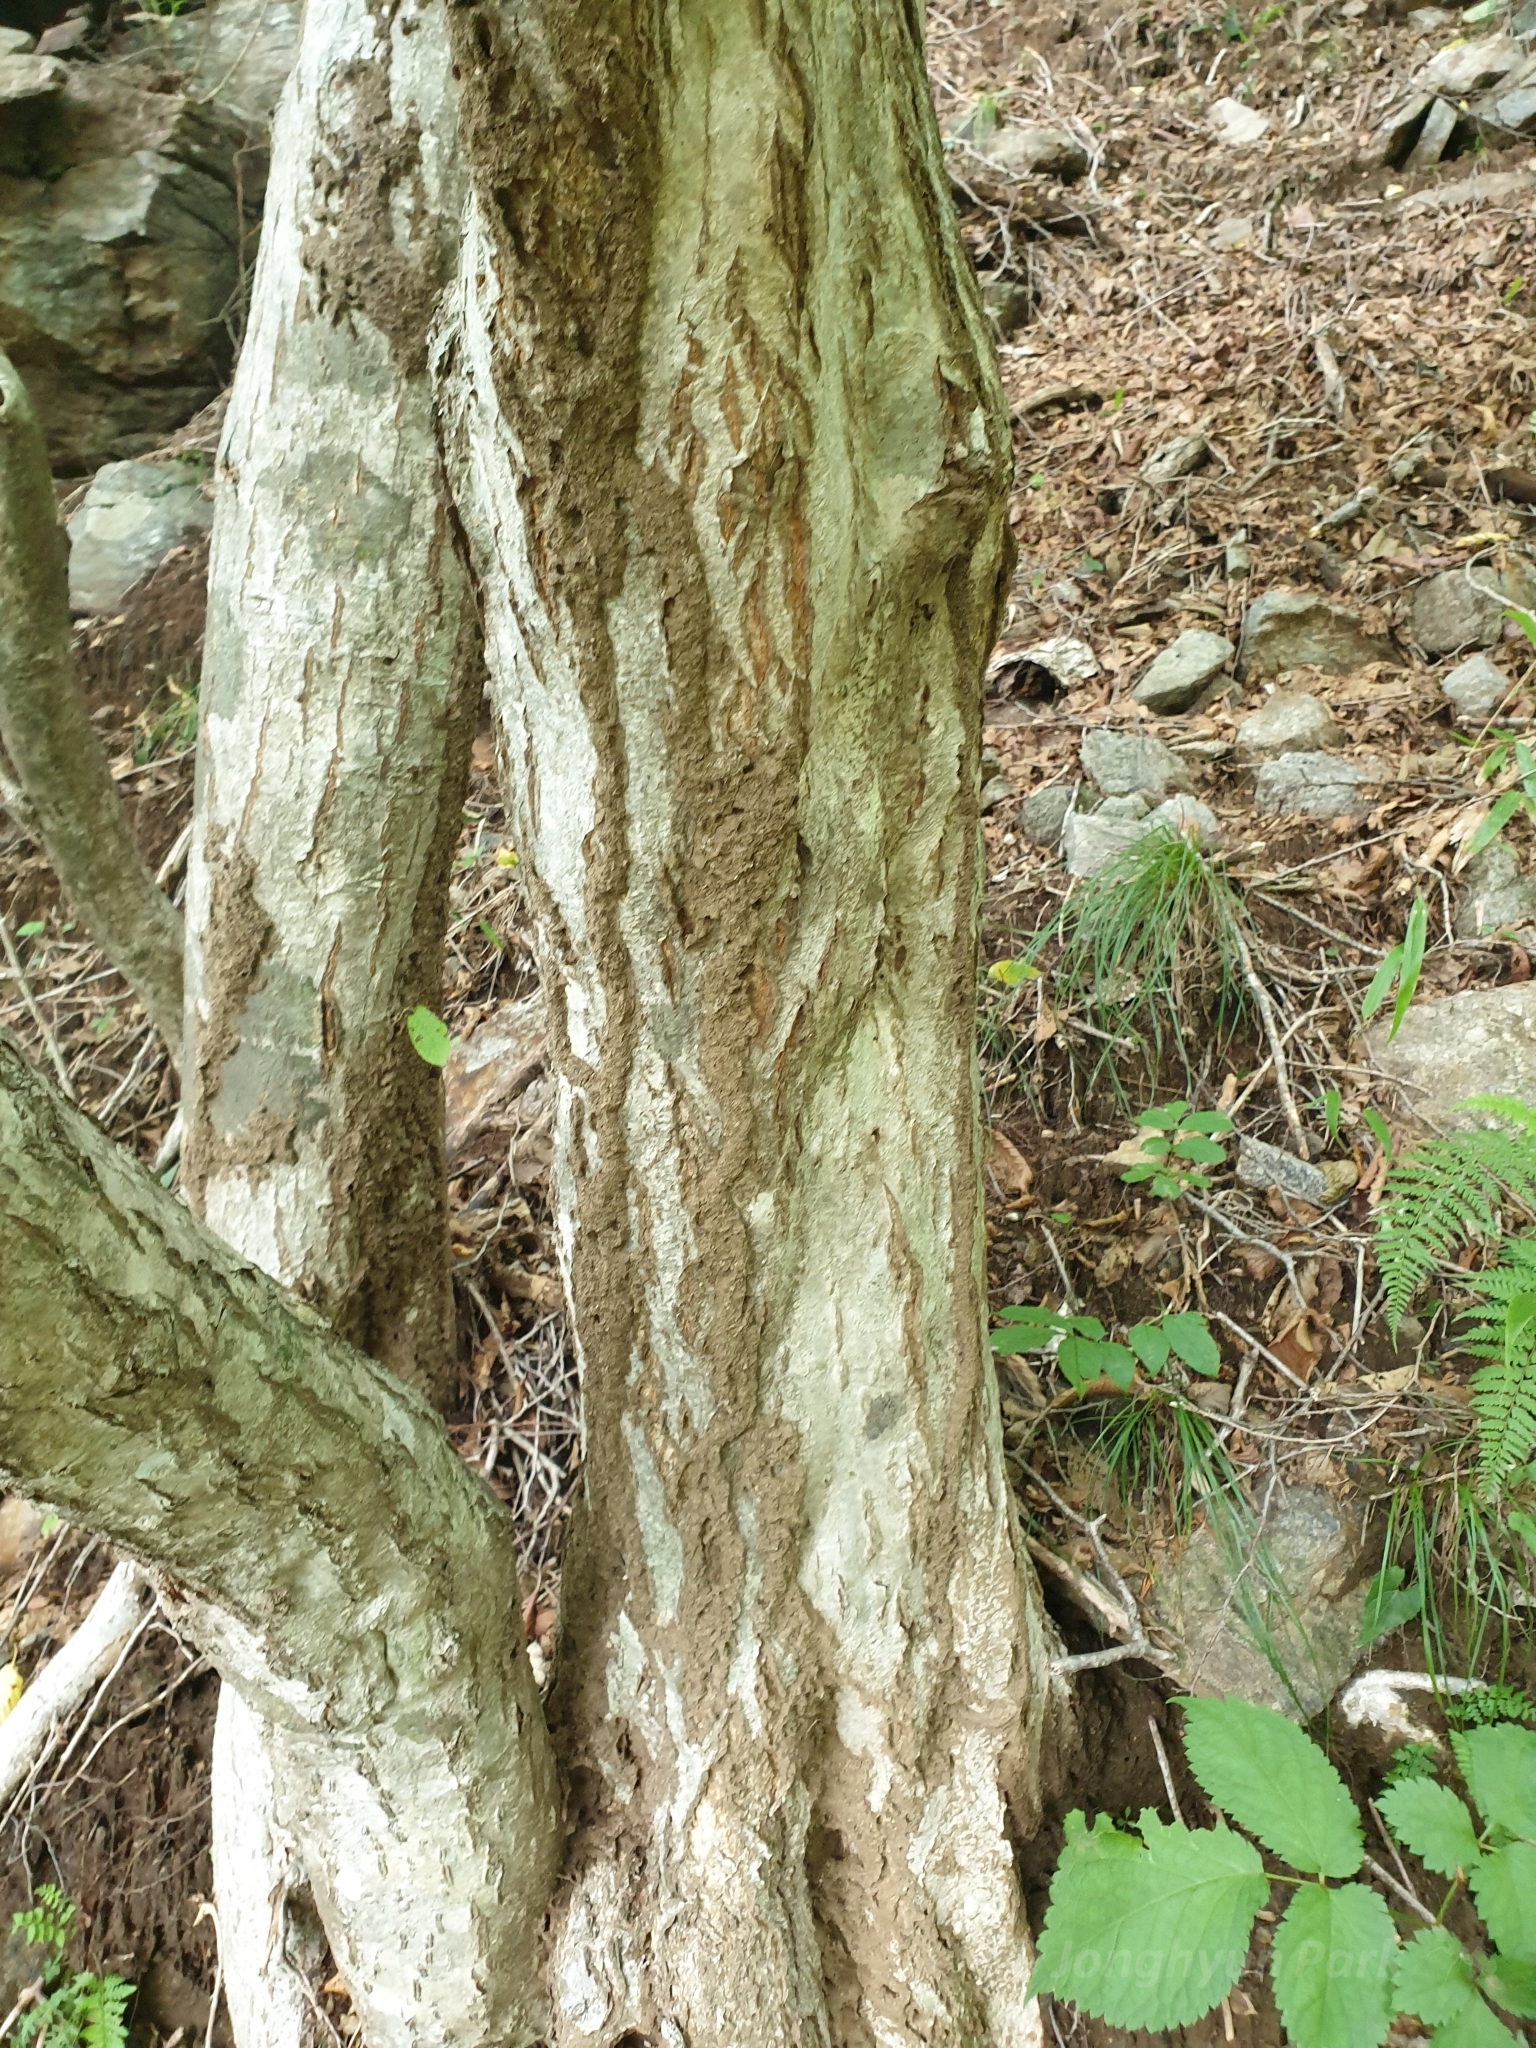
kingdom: Animalia
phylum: Arthropoda
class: Insecta
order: Hymenoptera
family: Formicidae
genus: Lasius
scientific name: Lasius hayashi
